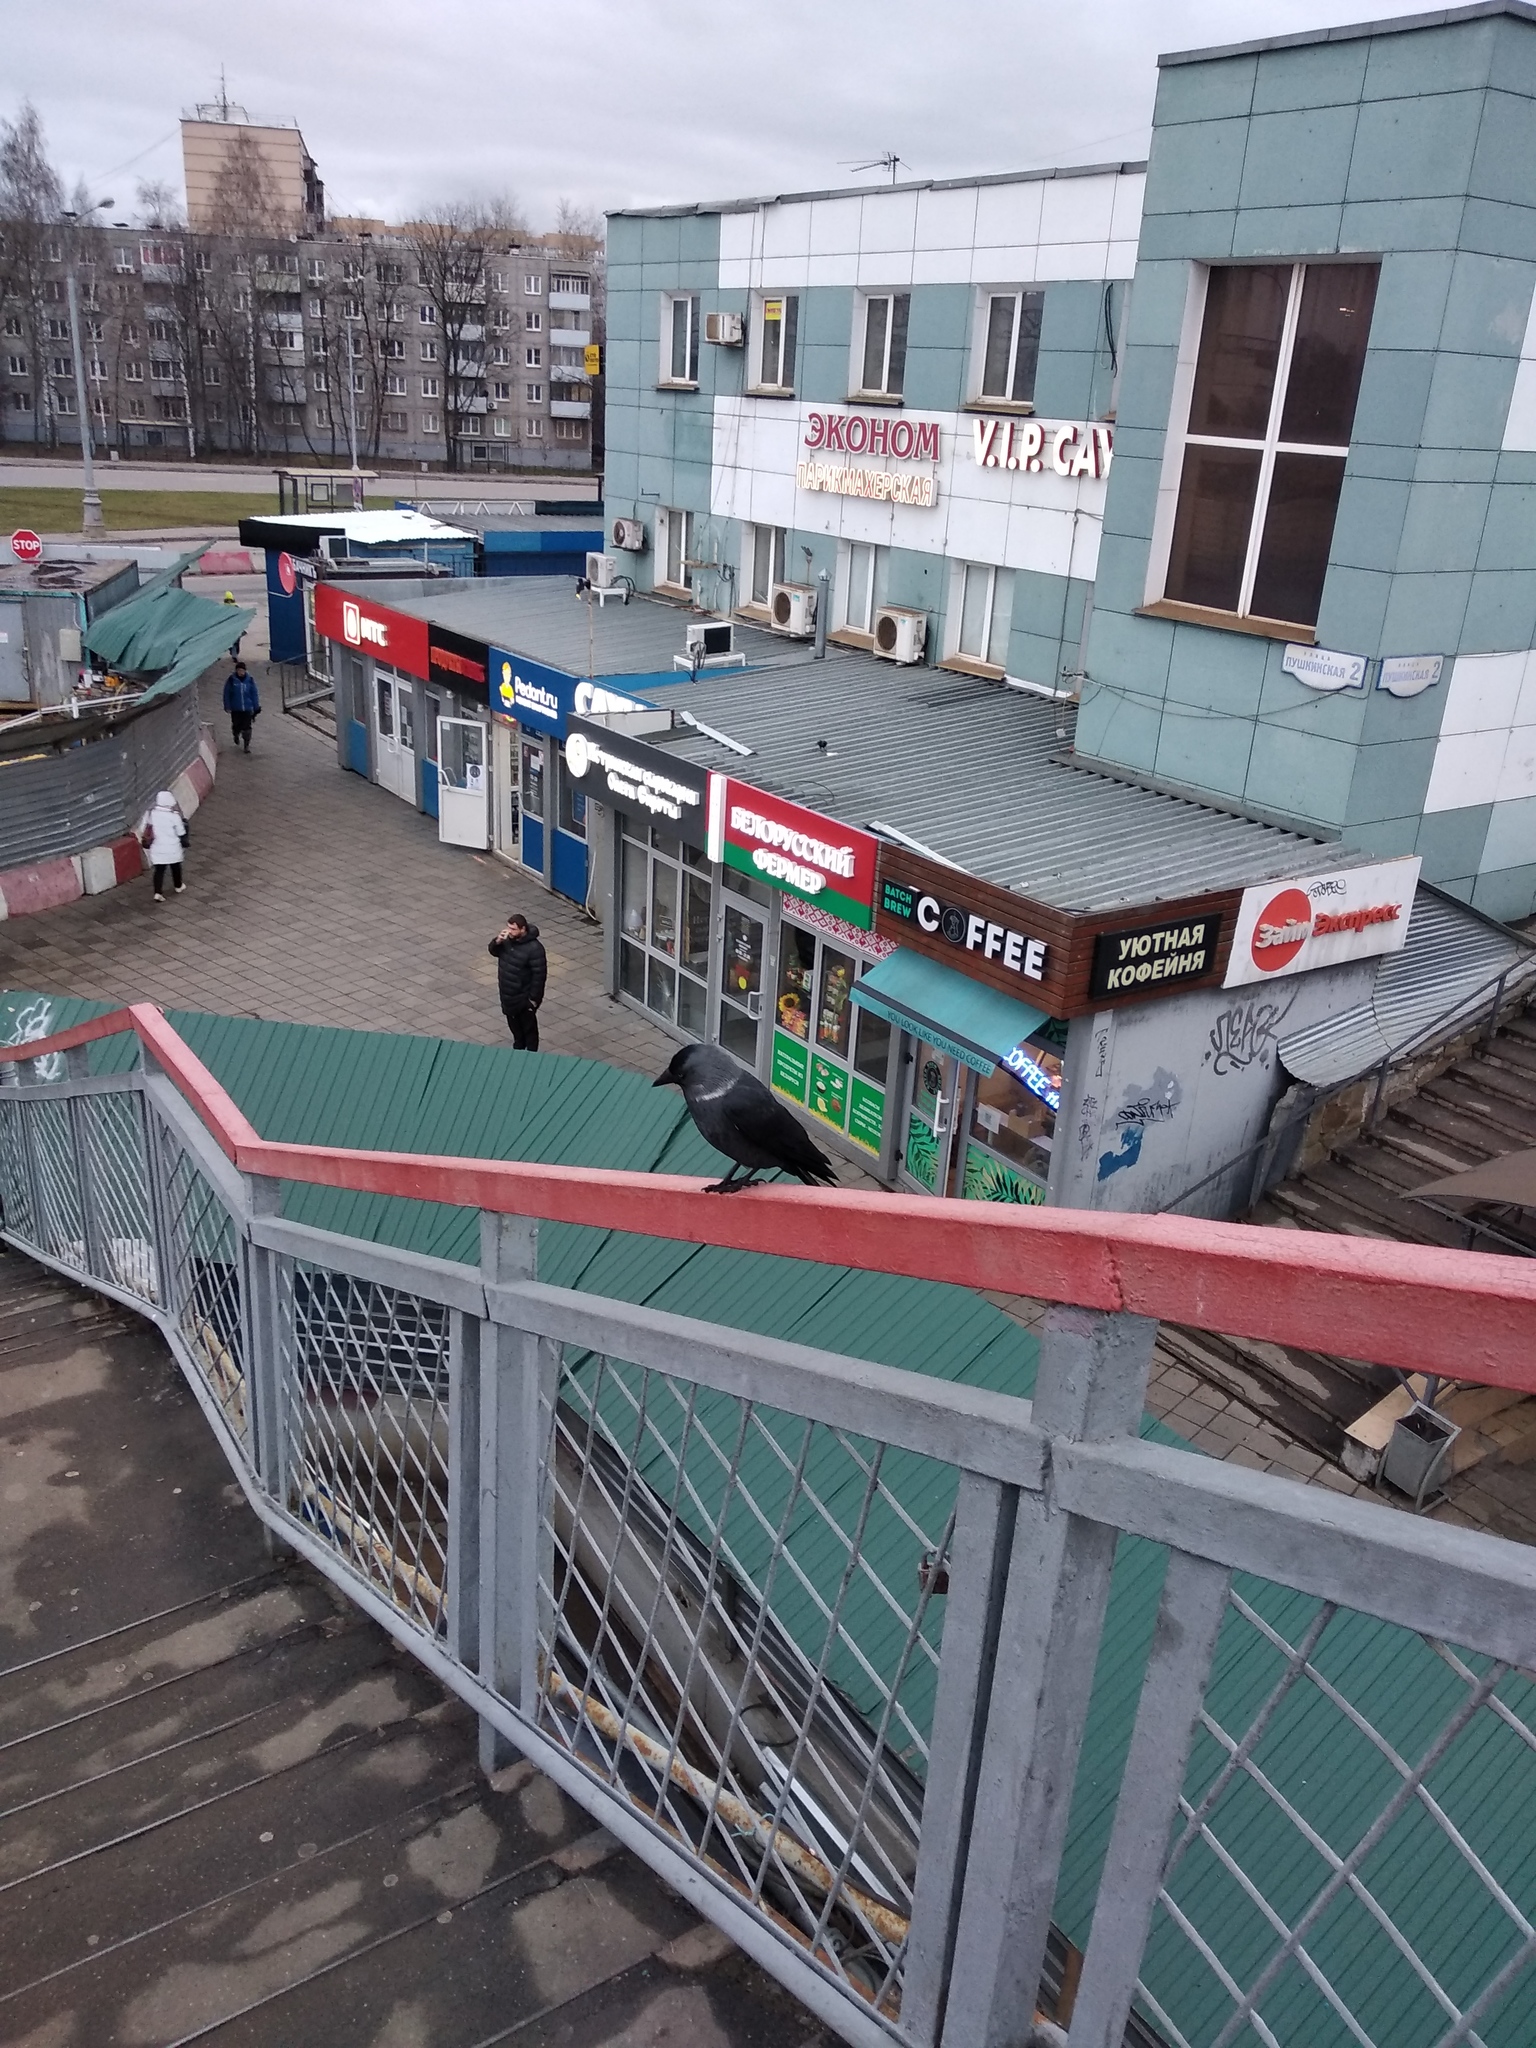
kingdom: Animalia
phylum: Chordata
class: Aves
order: Passeriformes
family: Corvidae
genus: Coloeus
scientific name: Coloeus monedula
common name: Western jackdaw
